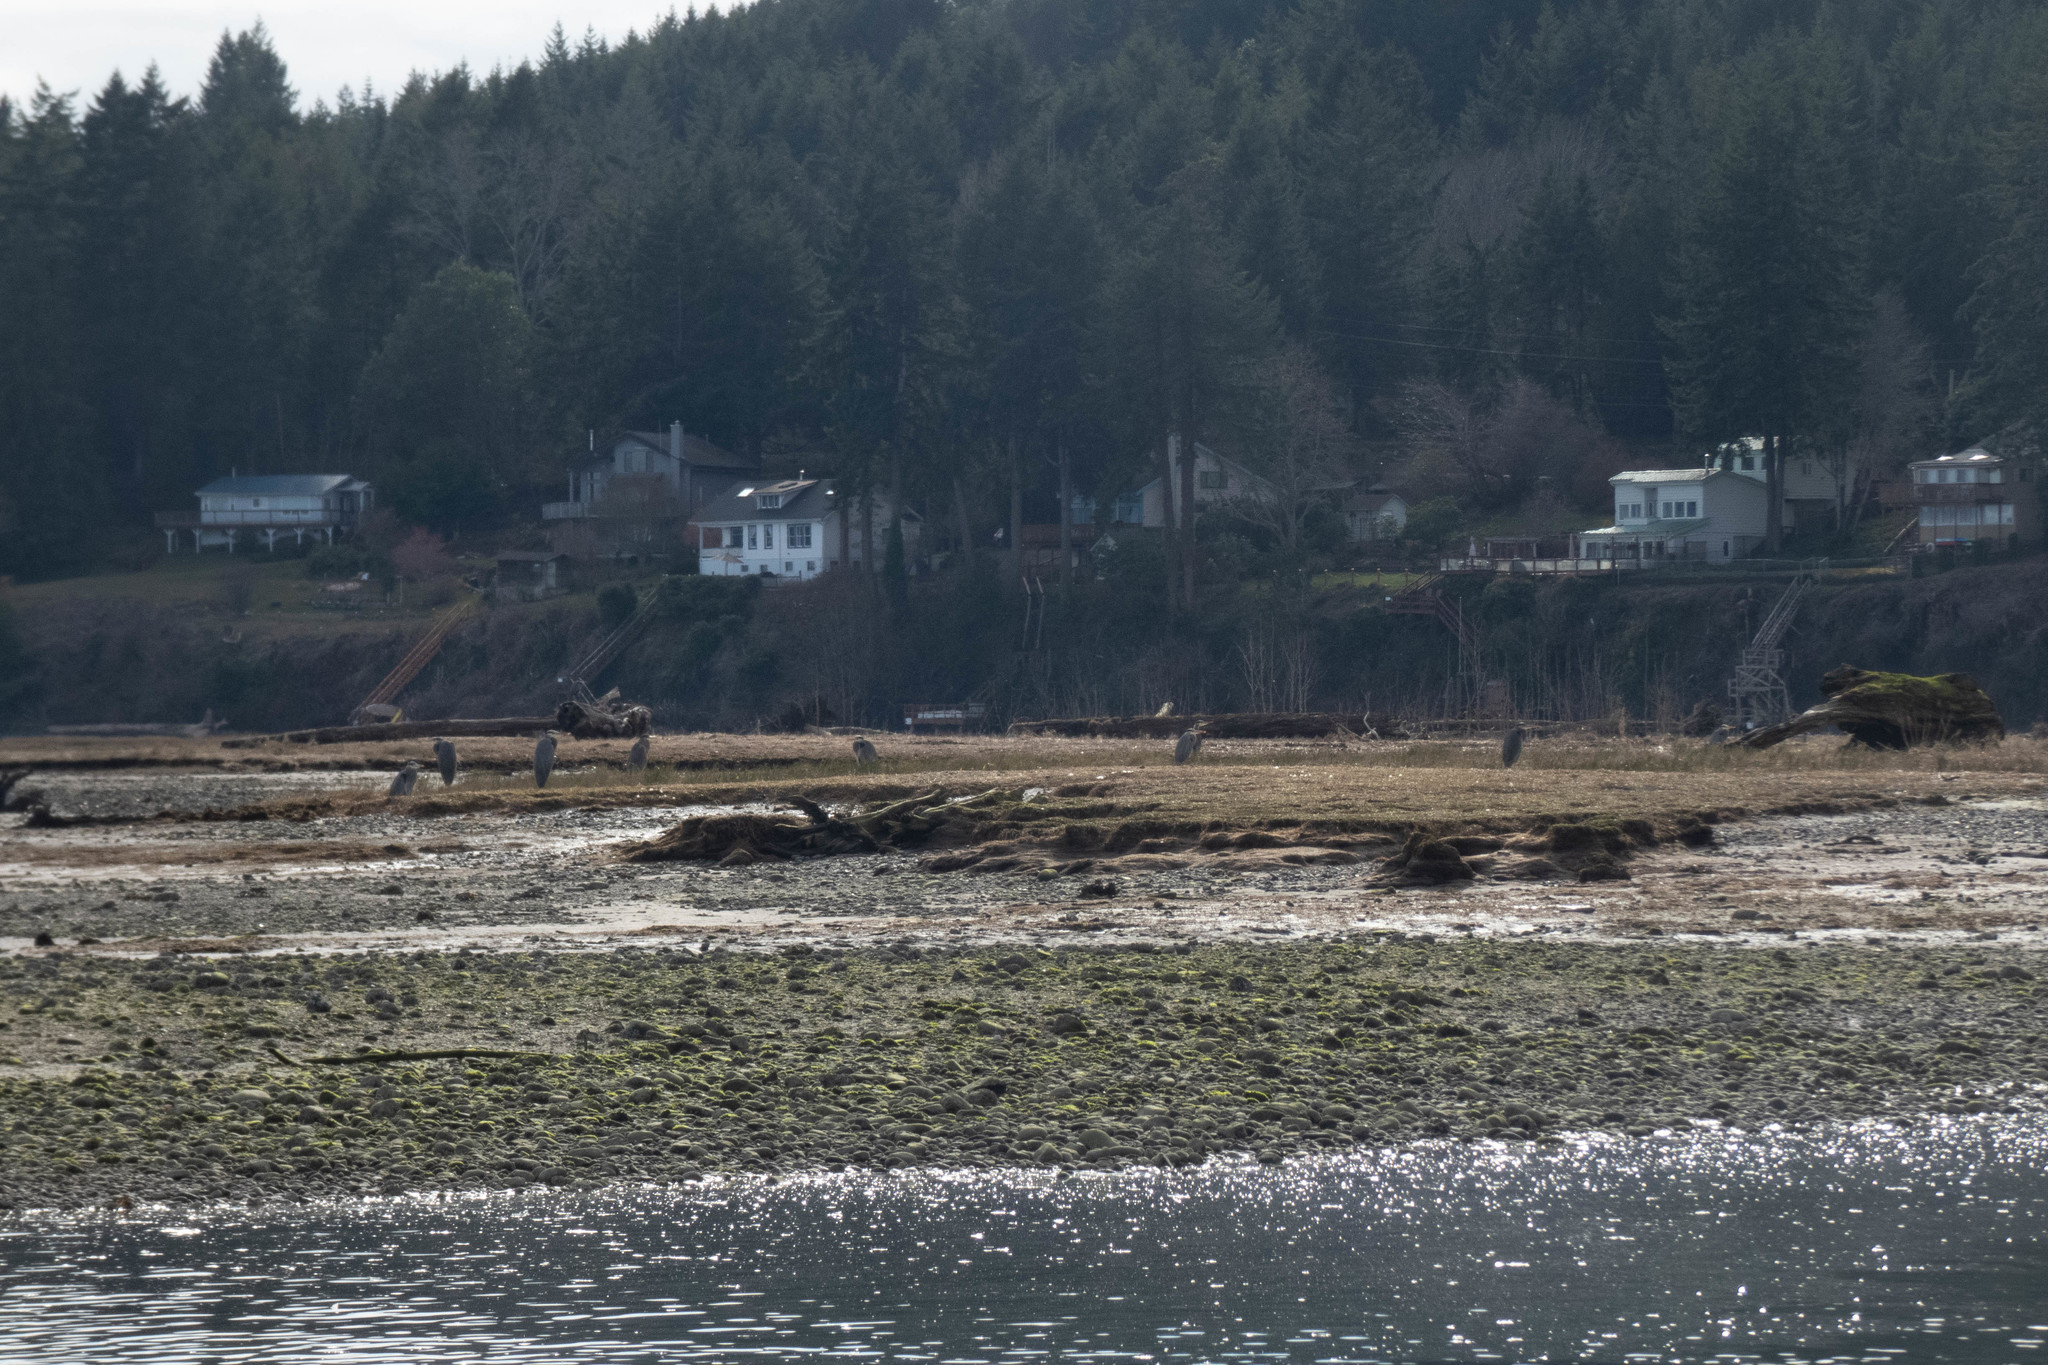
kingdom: Animalia
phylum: Chordata
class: Aves
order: Pelecaniformes
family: Ardeidae
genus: Ardea
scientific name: Ardea herodias
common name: Great blue heron
